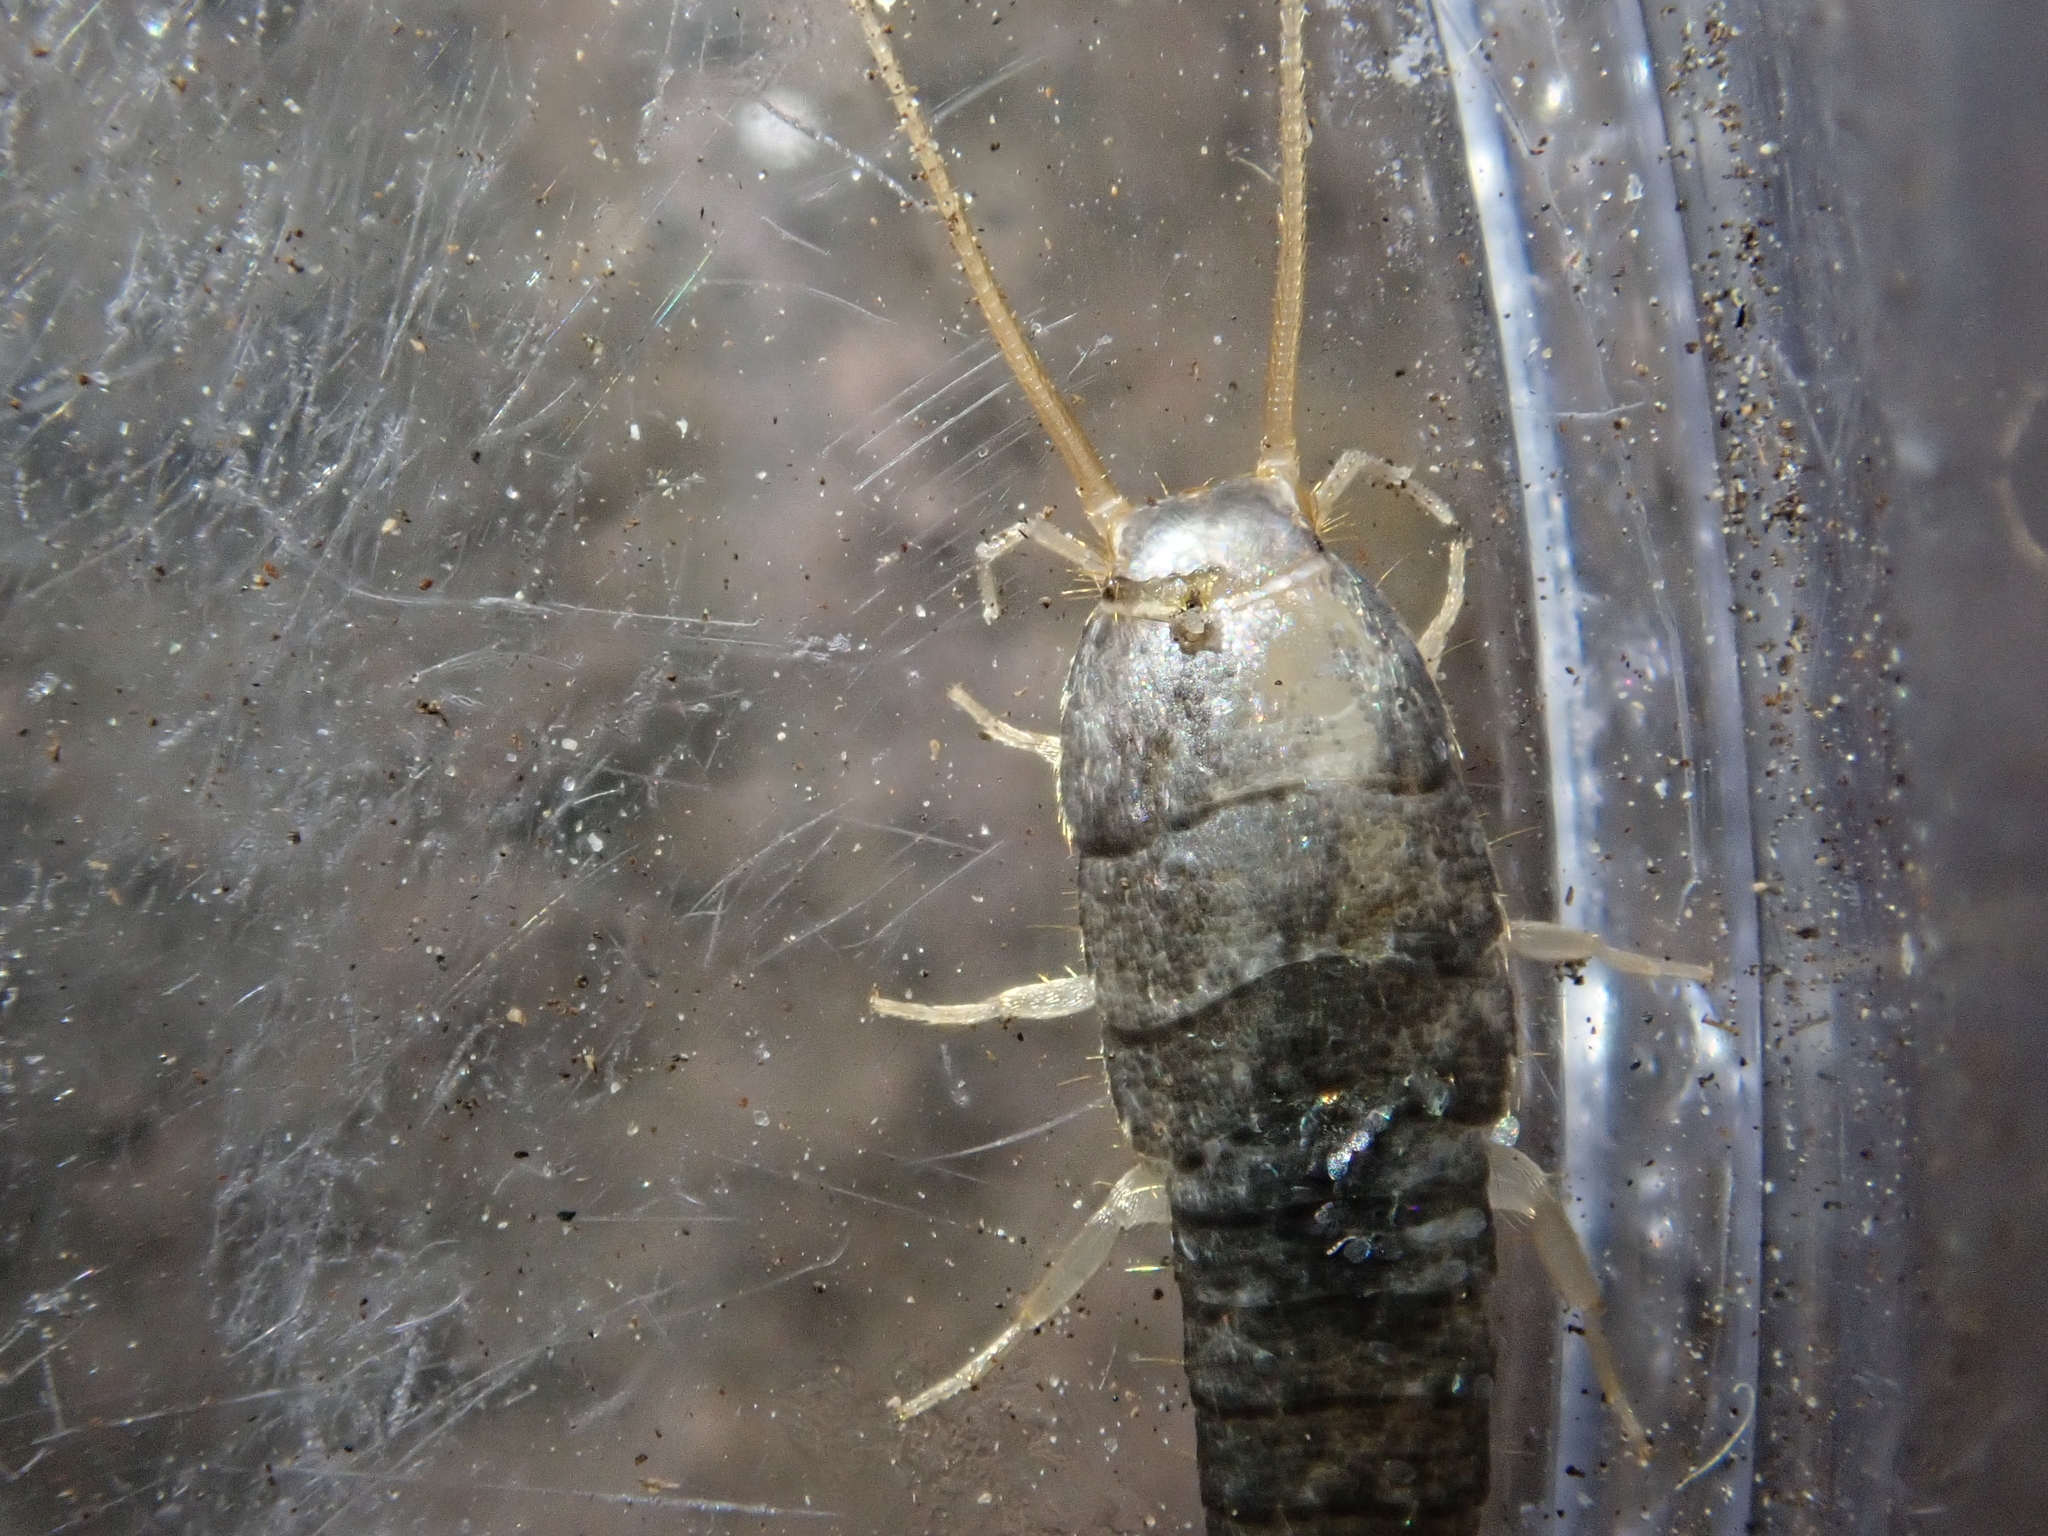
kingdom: Animalia
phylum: Arthropoda
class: Insecta
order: Zygentoma
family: Lepismatidae
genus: Lepisma
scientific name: Lepisma saccharinum
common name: Silverfish
